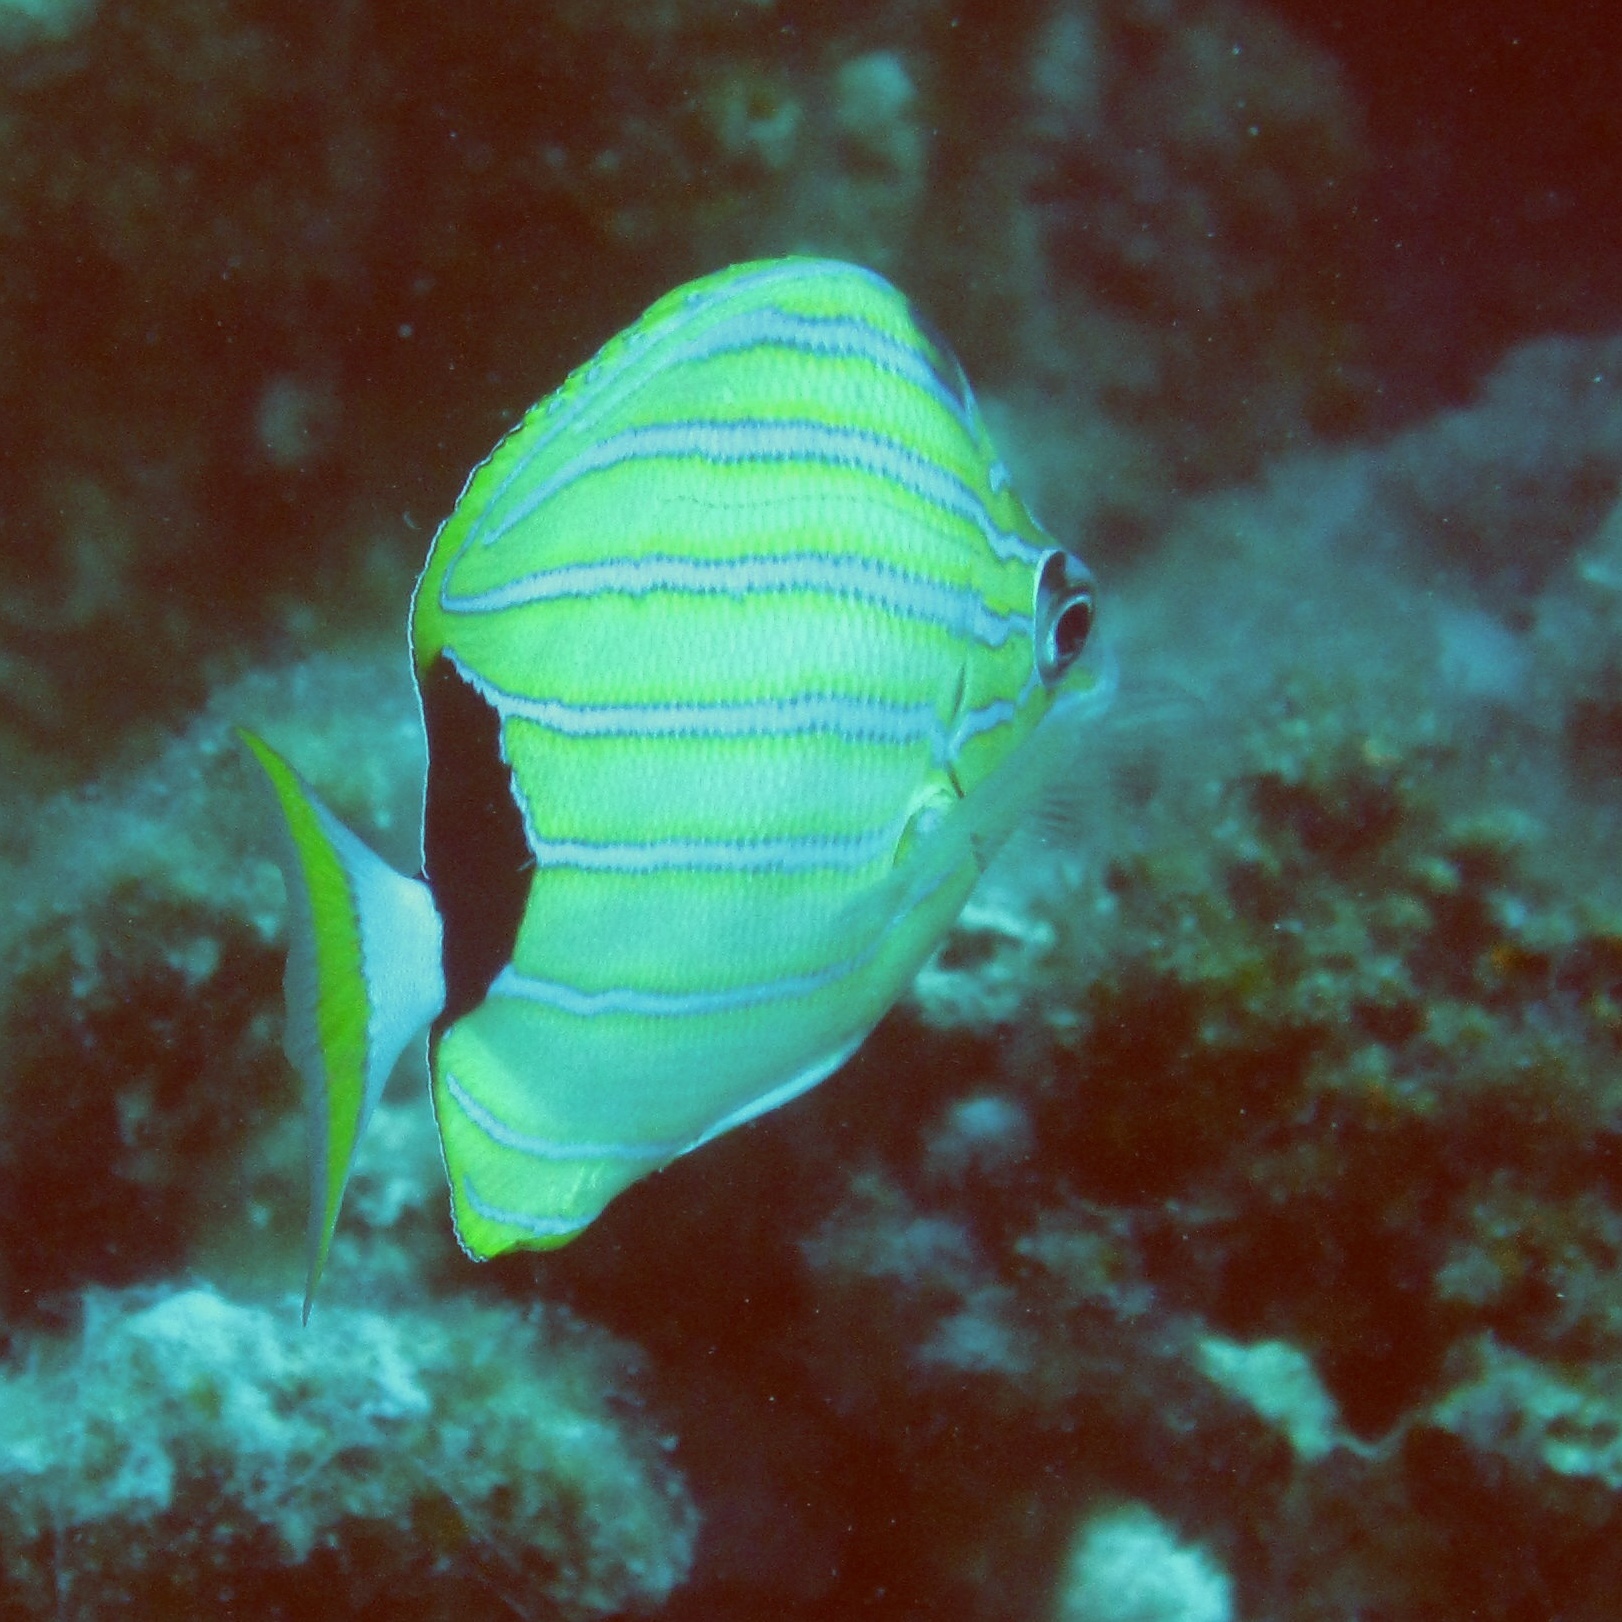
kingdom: Animalia
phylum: Chordata
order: Perciformes
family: Chaetodontidae
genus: Chaetodon
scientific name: Chaetodon fremblii
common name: Bluestriped butterflyfish
